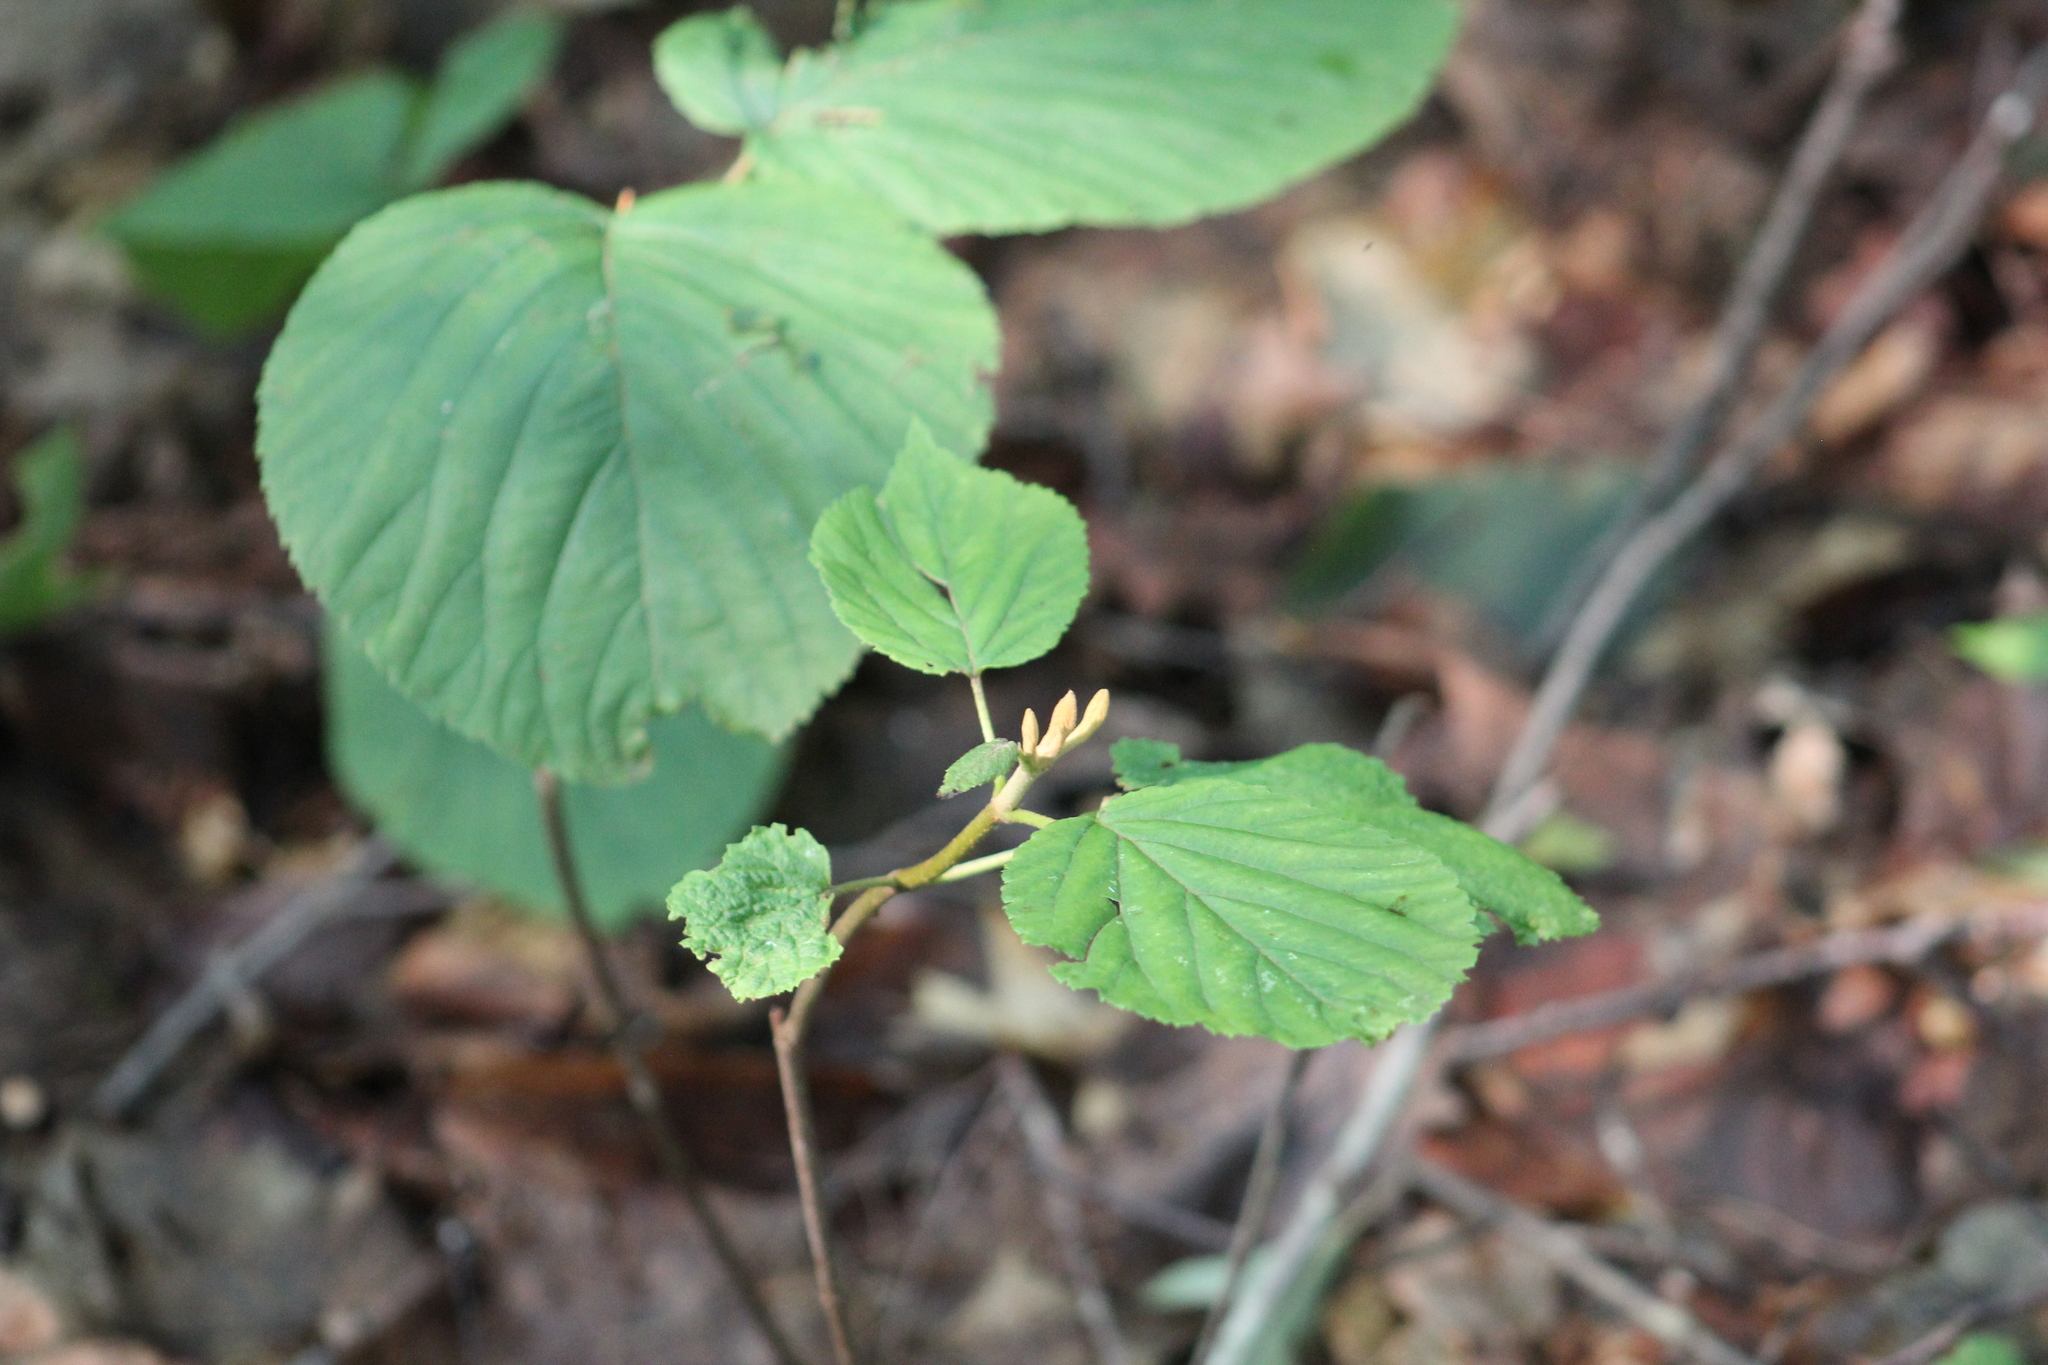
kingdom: Plantae
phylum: Tracheophyta
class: Magnoliopsida
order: Dipsacales
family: Viburnaceae
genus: Viburnum
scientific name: Viburnum lantanoides
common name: Hobblebush
